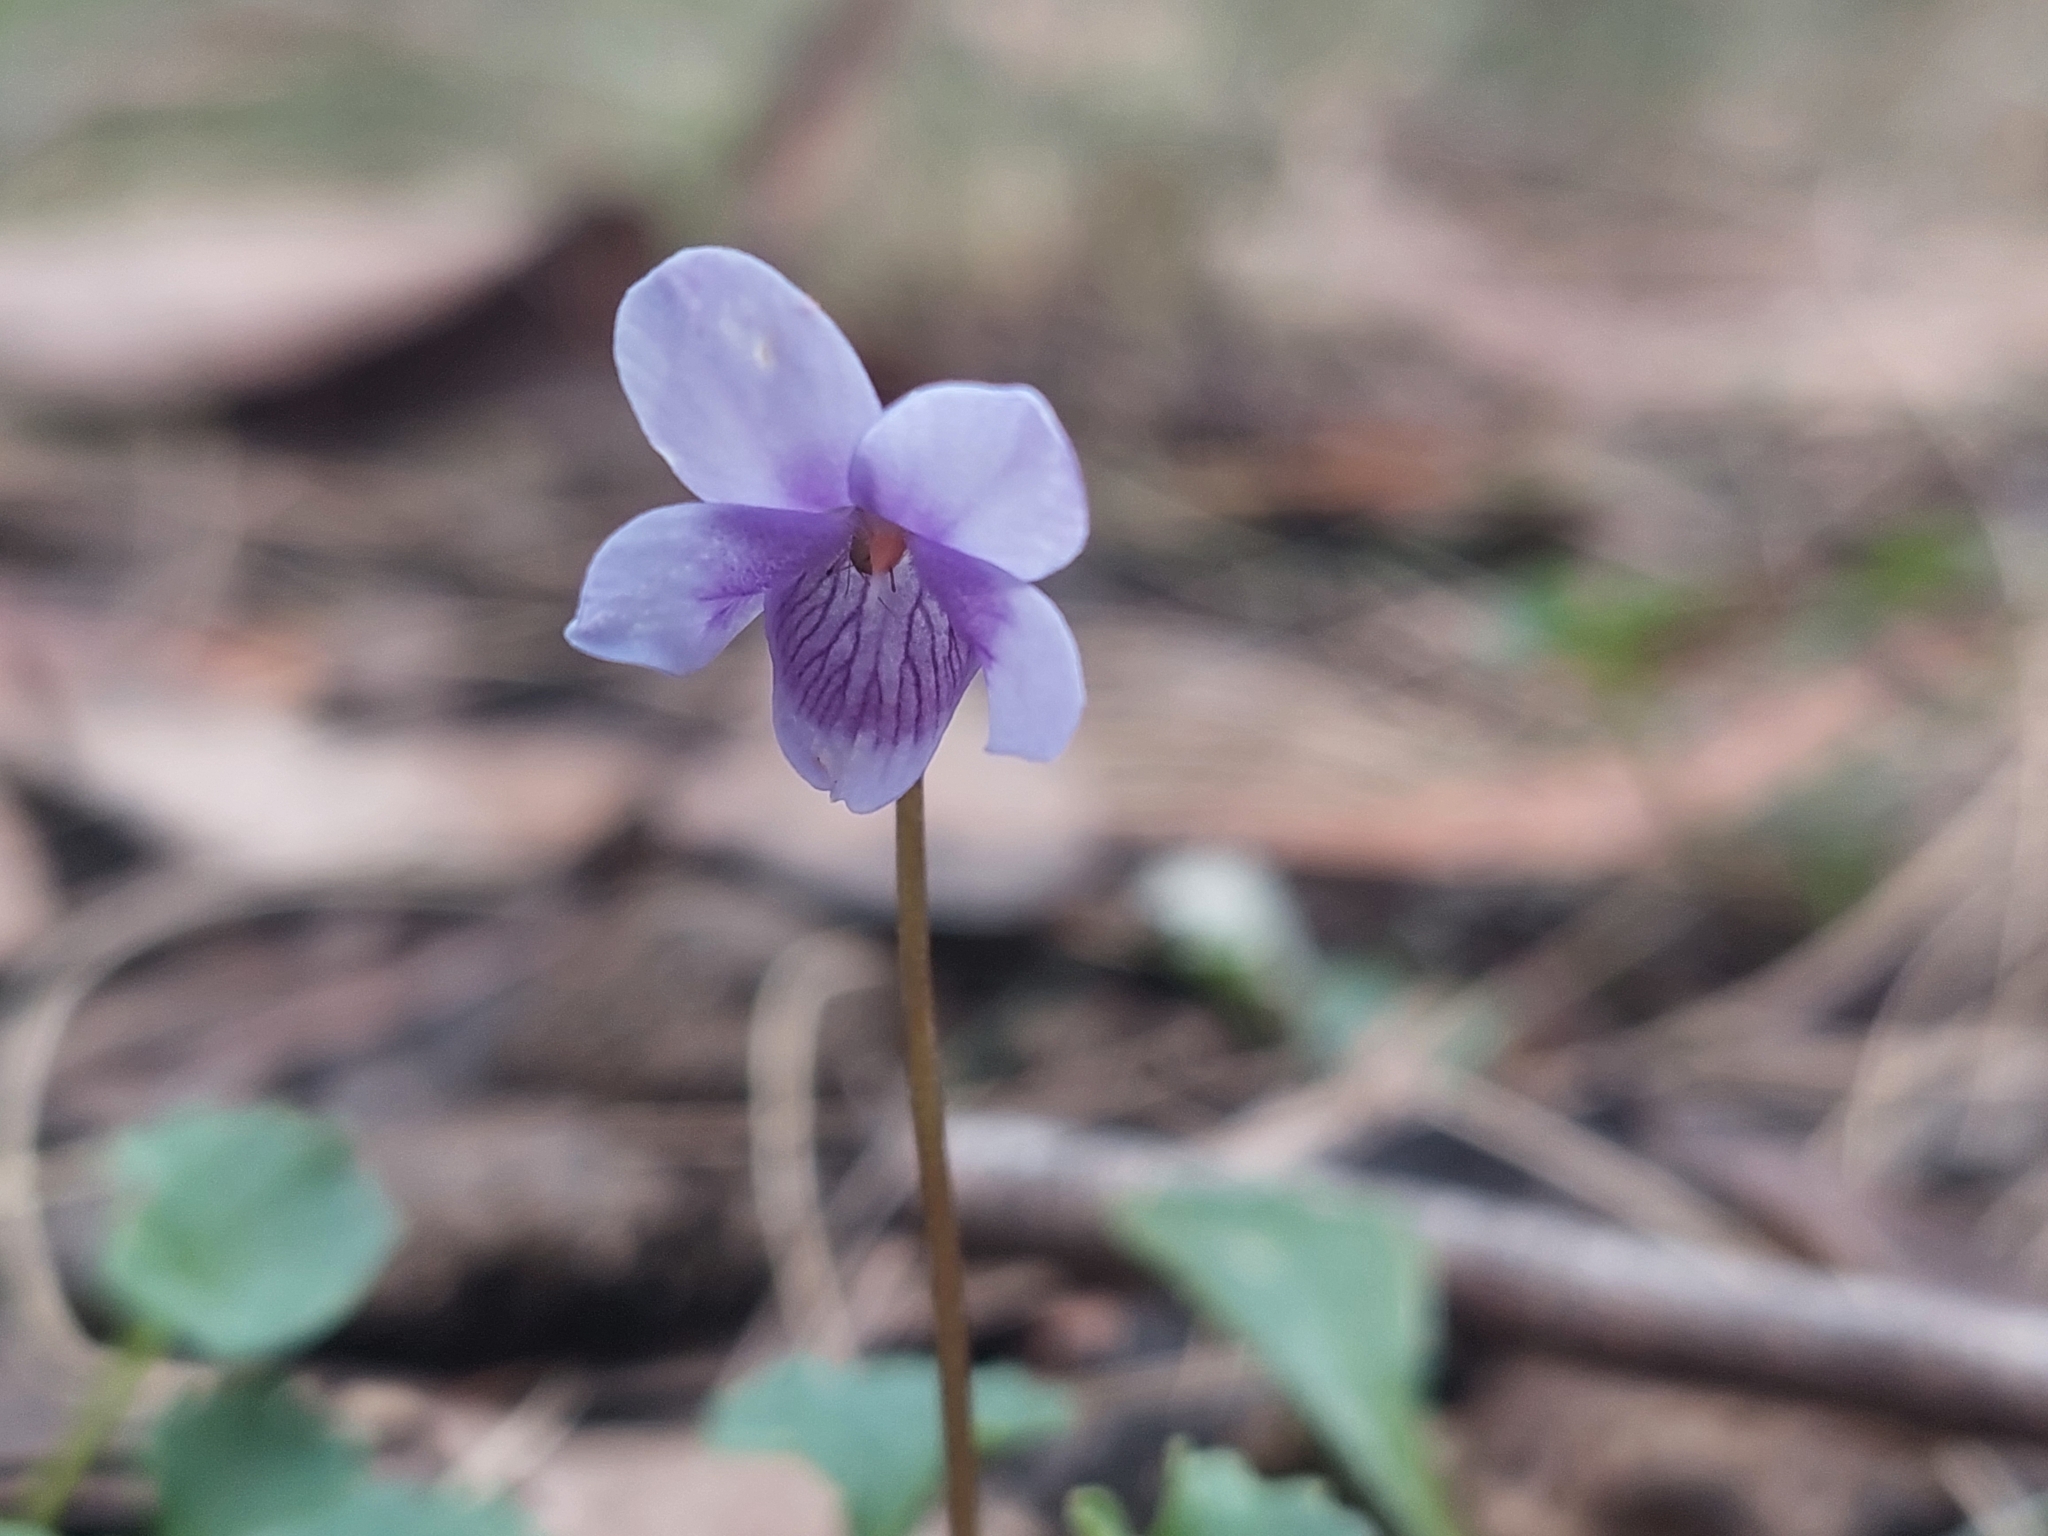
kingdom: Plantae
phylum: Tracheophyta
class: Magnoliopsida
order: Malpighiales
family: Violaceae
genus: Viola
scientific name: Viola hederacea
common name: Australian violet
